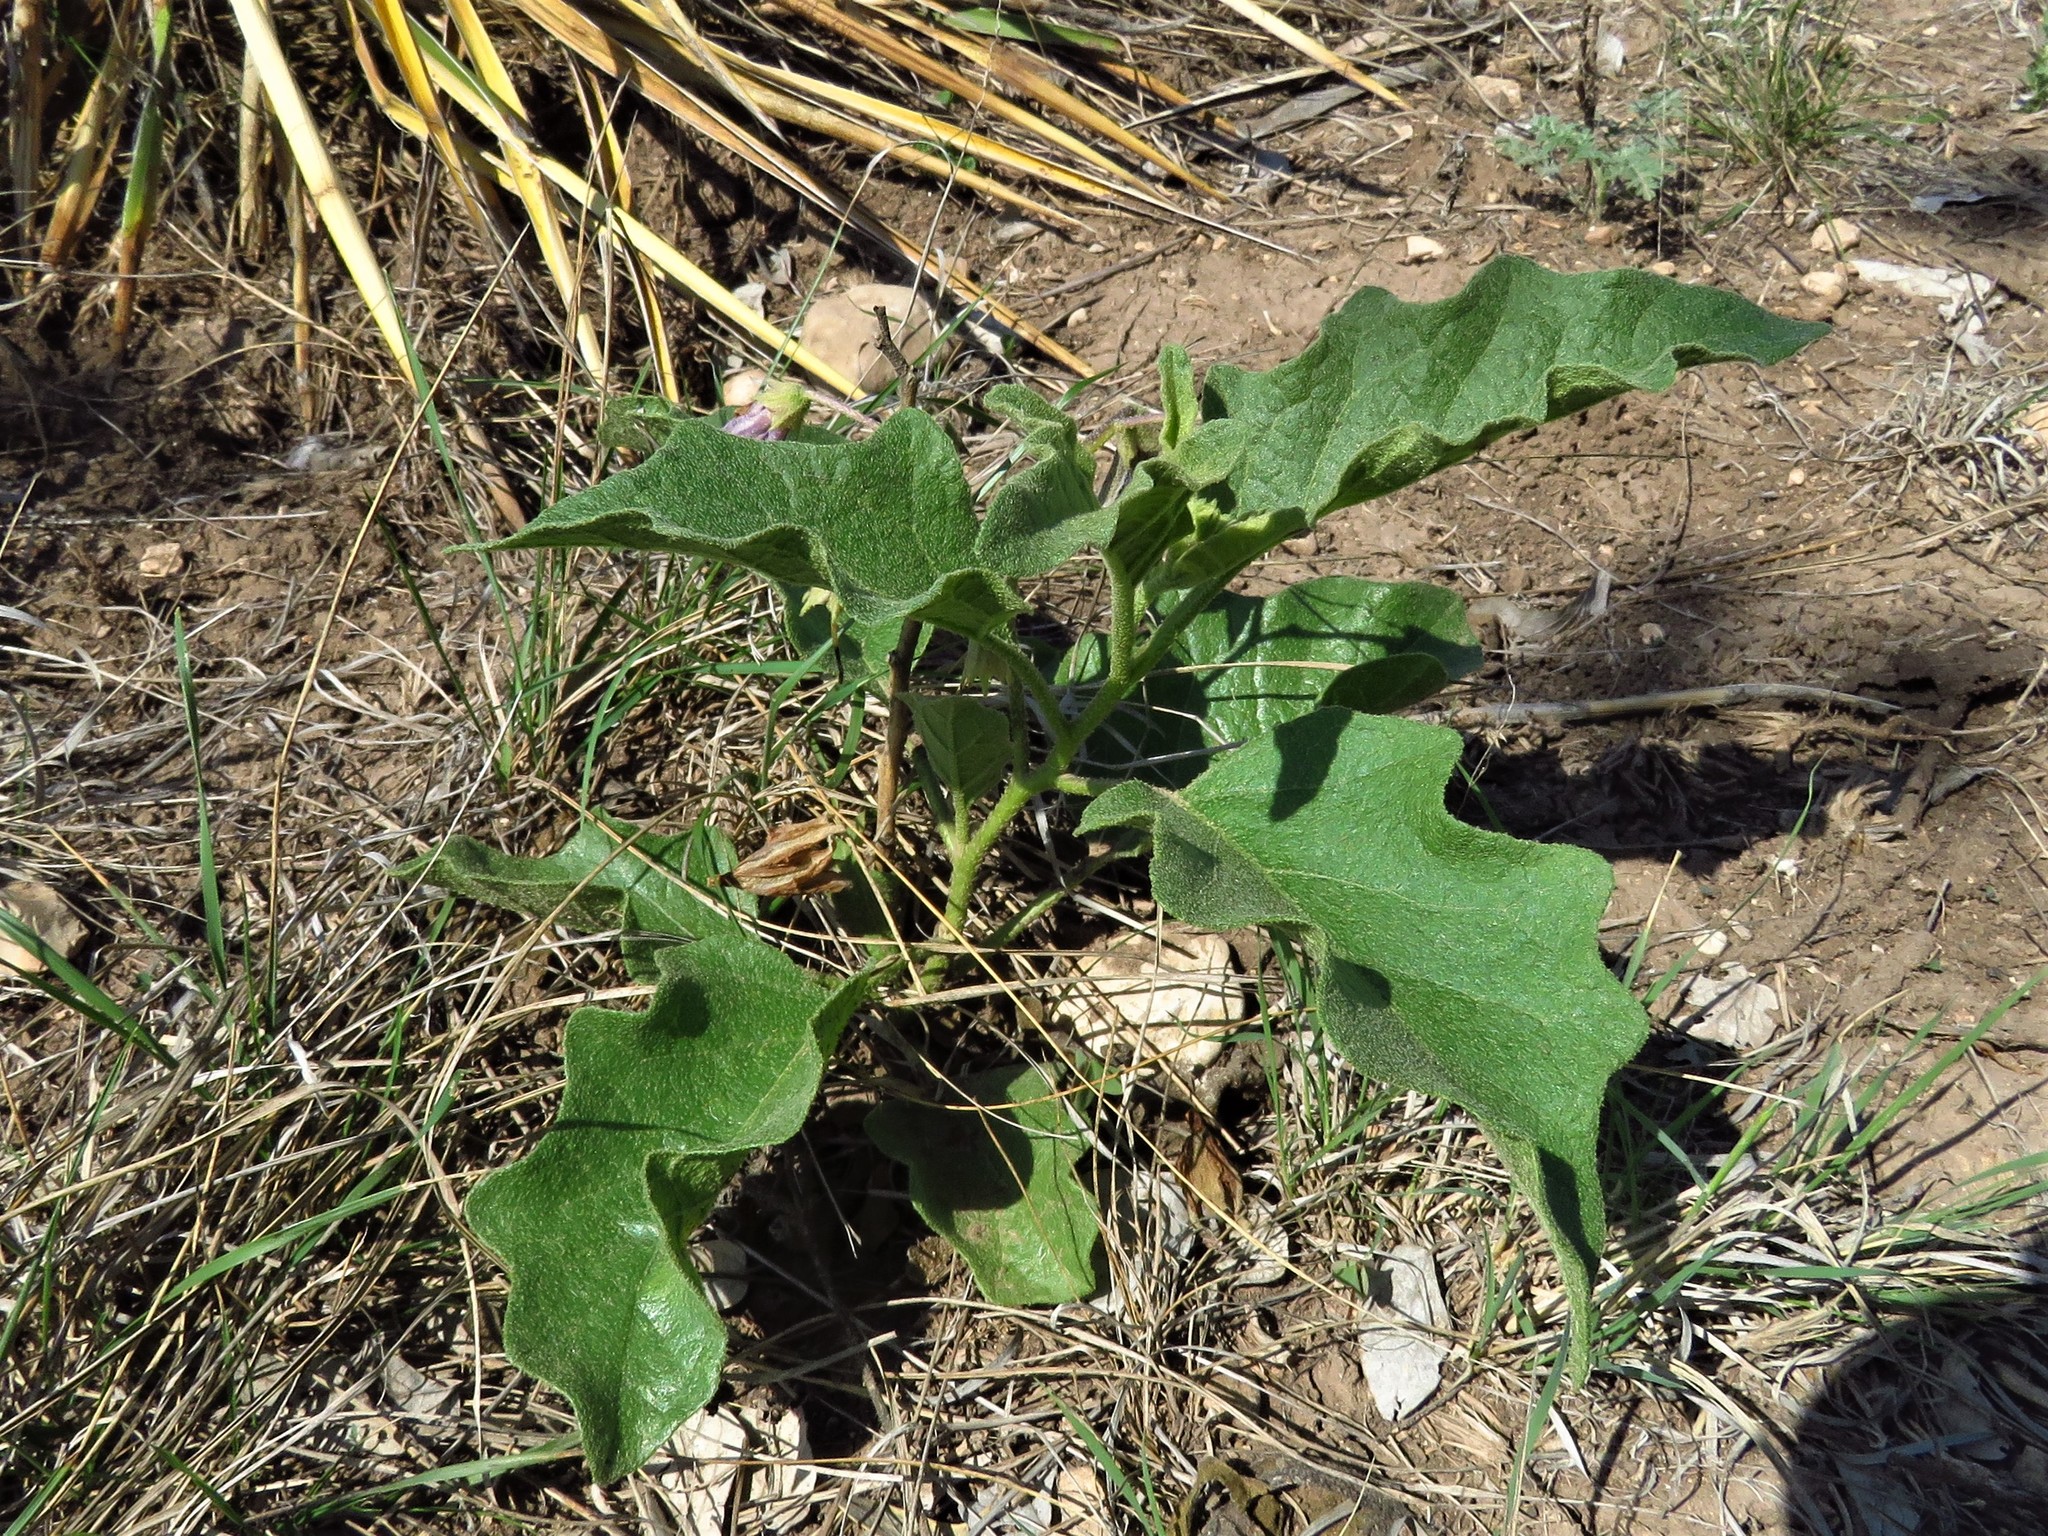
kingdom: Plantae
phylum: Tracheophyta
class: Magnoliopsida
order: Solanales
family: Solanaceae
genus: Solanum
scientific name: Solanum dimidiatum
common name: Carolina horse-nettle
